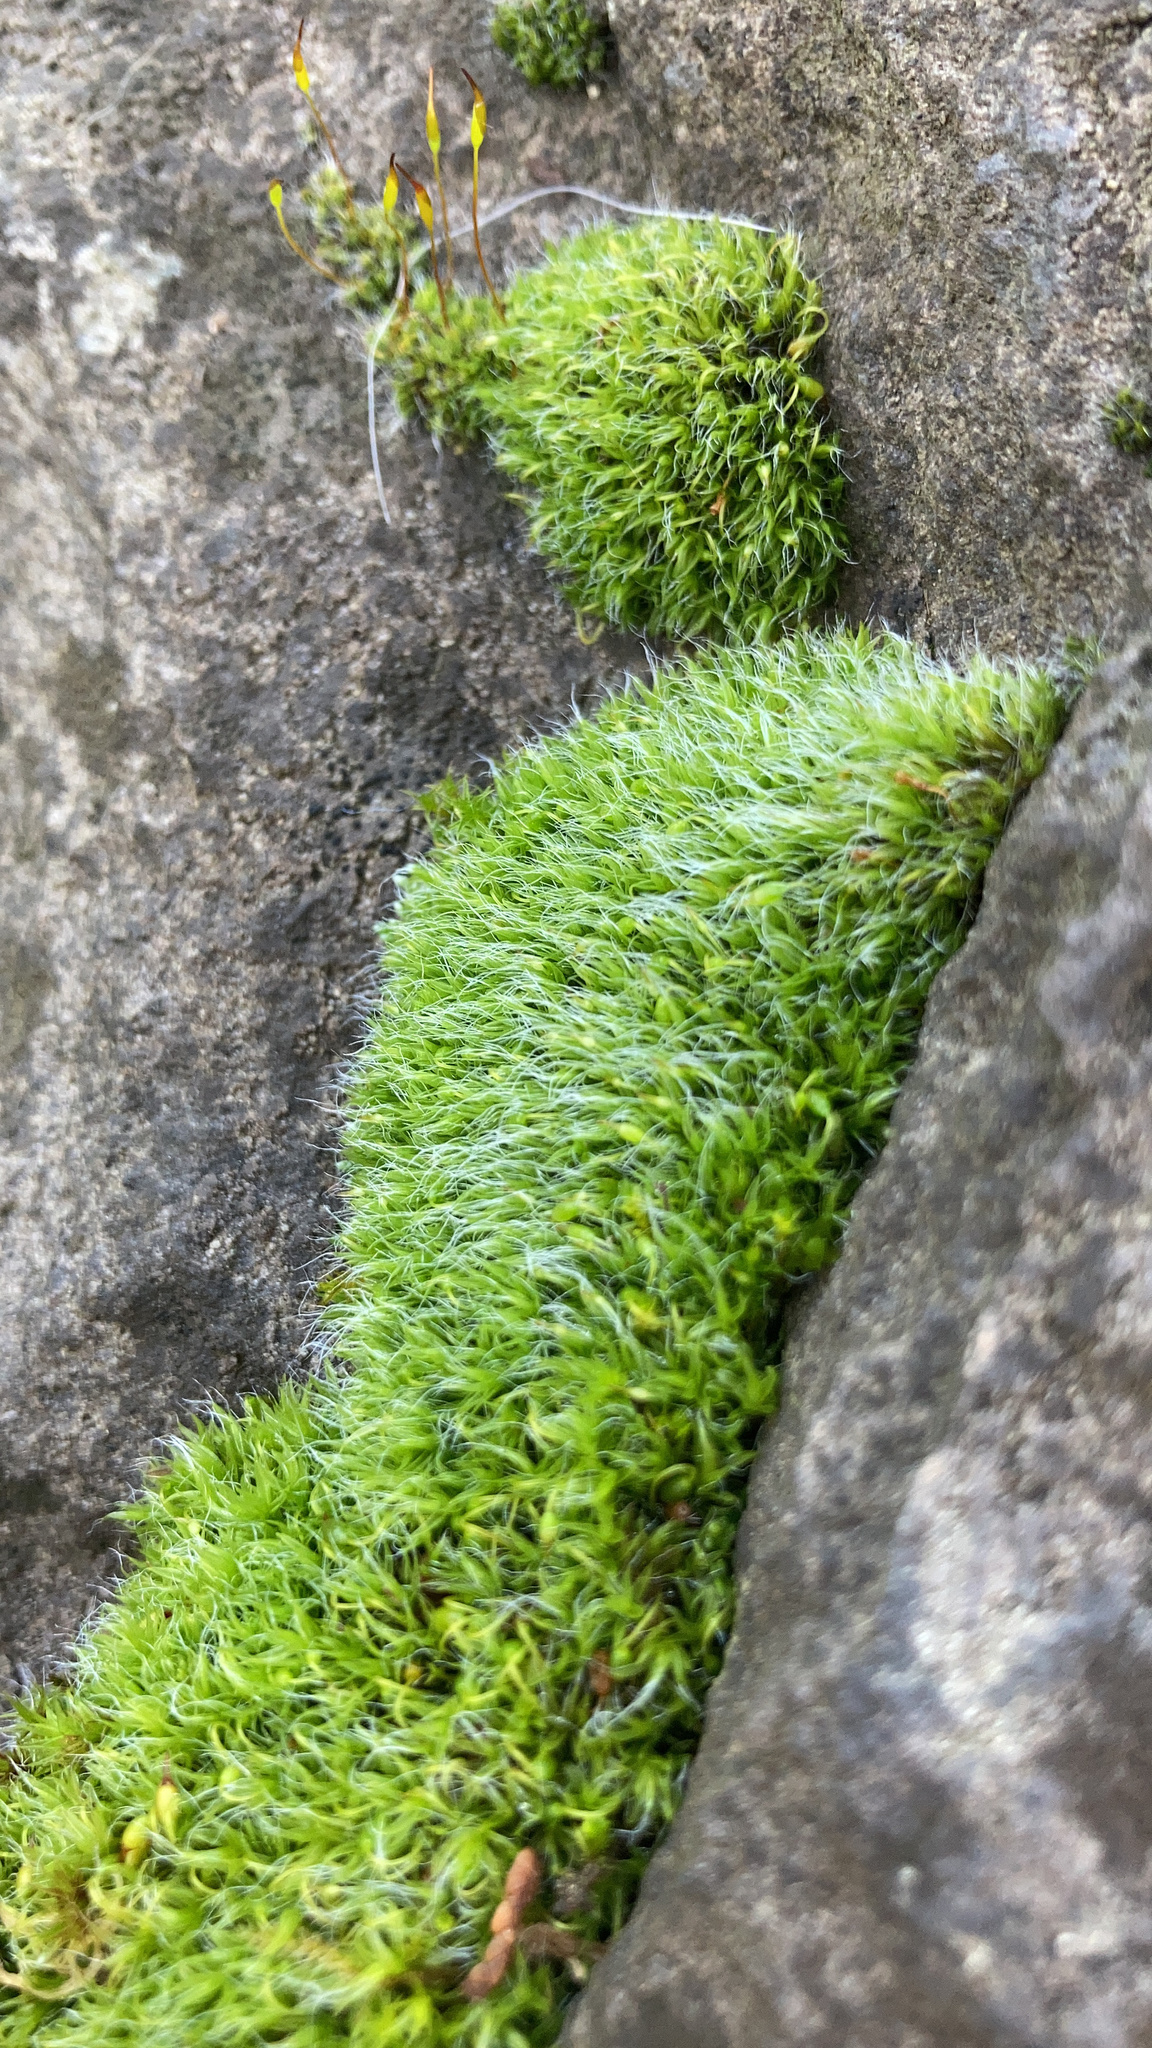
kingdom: Plantae
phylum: Bryophyta
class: Bryopsida
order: Grimmiales
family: Grimmiaceae
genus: Grimmia
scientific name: Grimmia pulvinata
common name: Grey-cushioned grimmia
